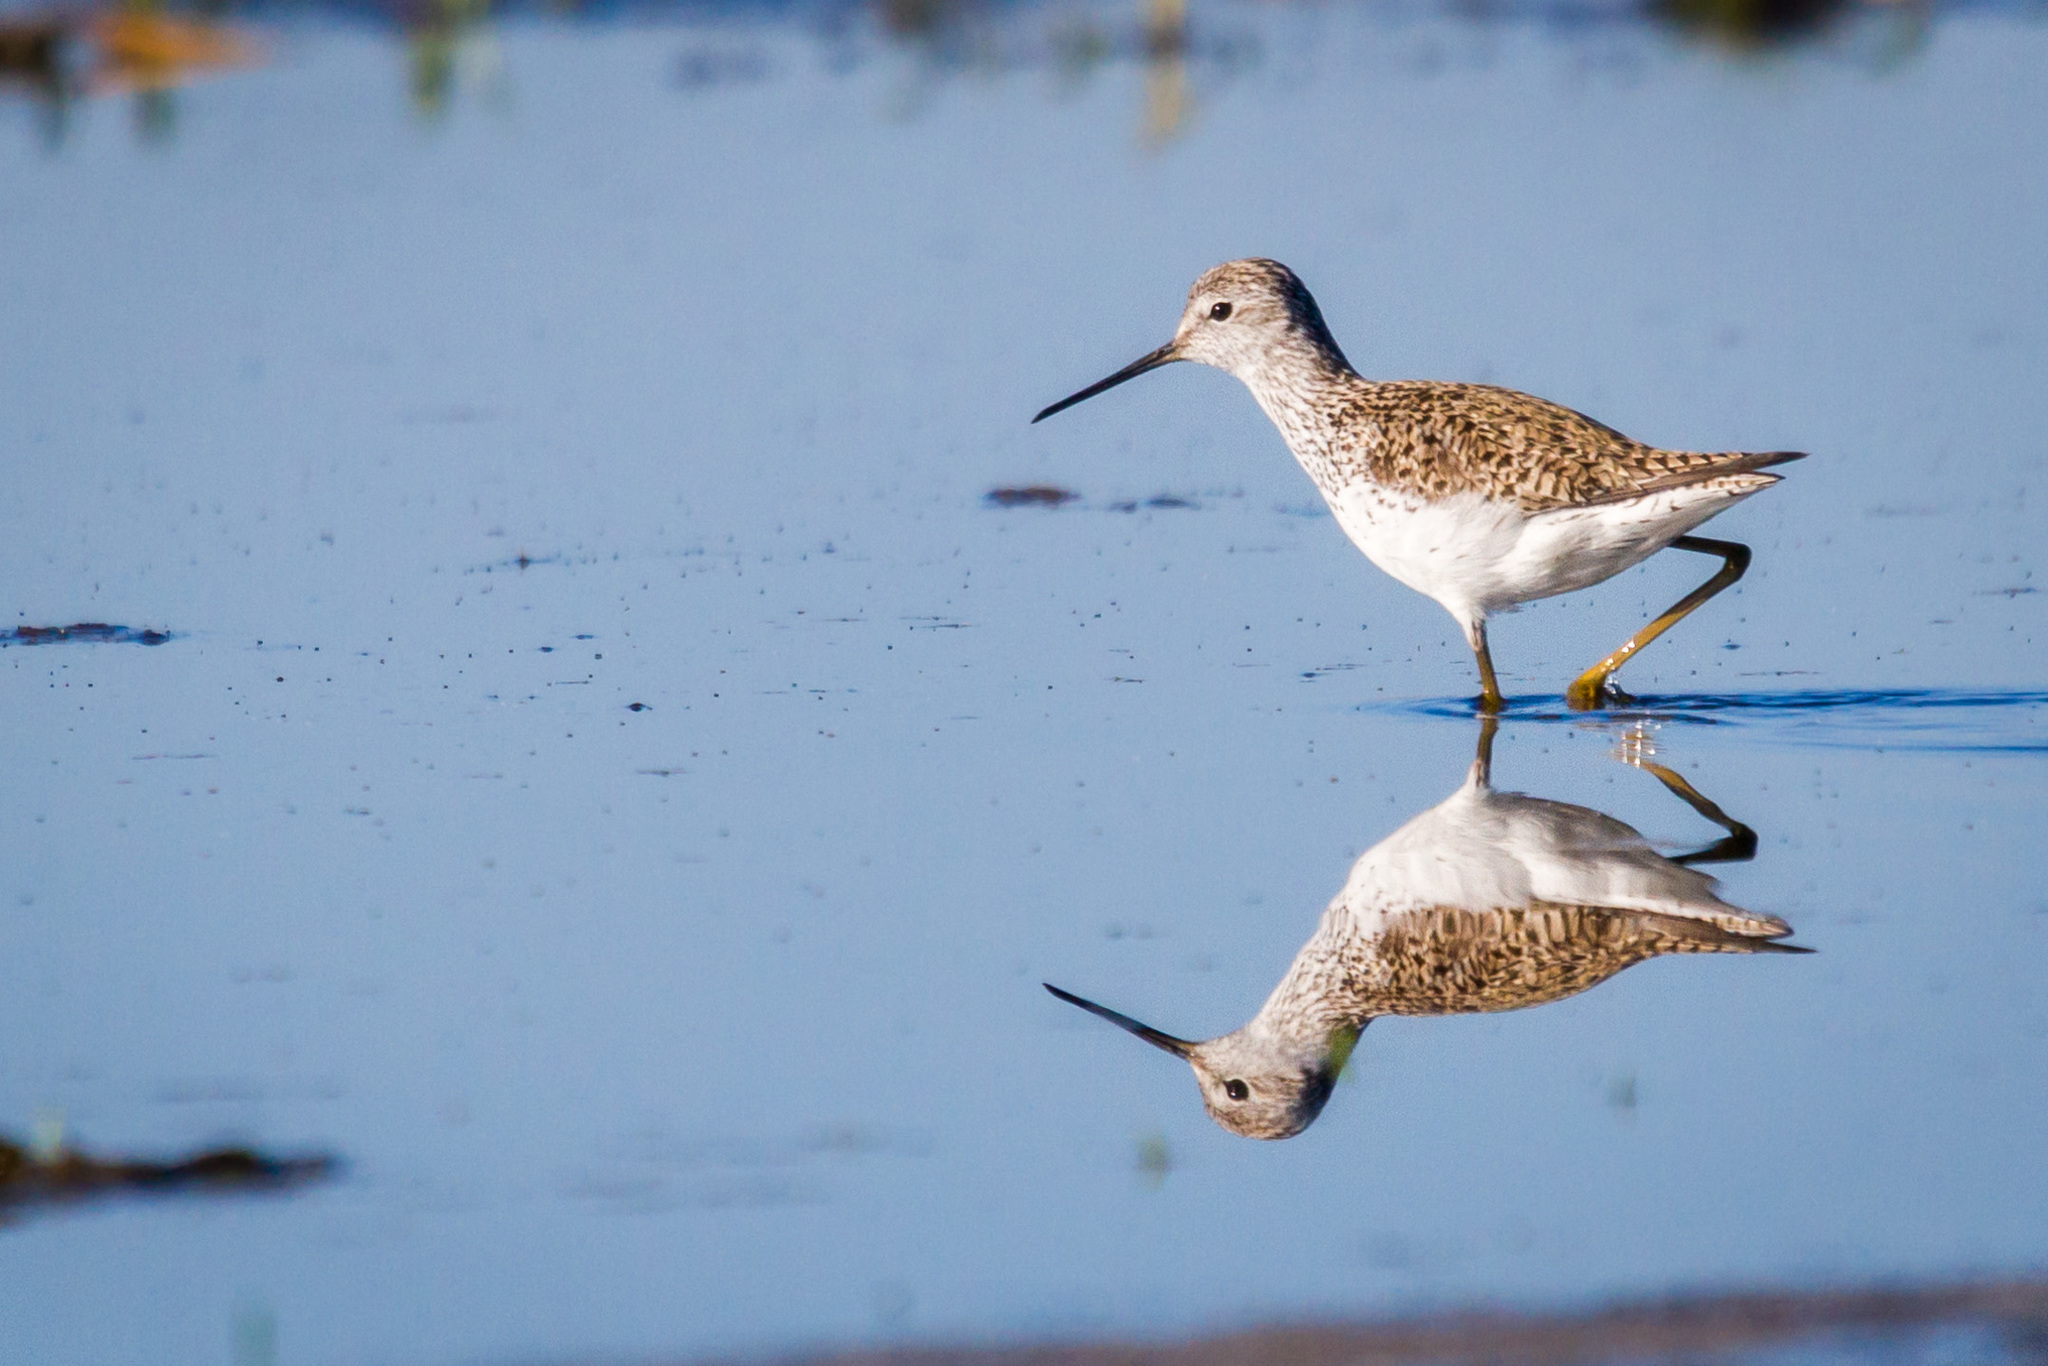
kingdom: Animalia
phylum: Chordata
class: Aves
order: Charadriiformes
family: Scolopacidae
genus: Tringa
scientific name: Tringa stagnatilis
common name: Marsh sandpiper
